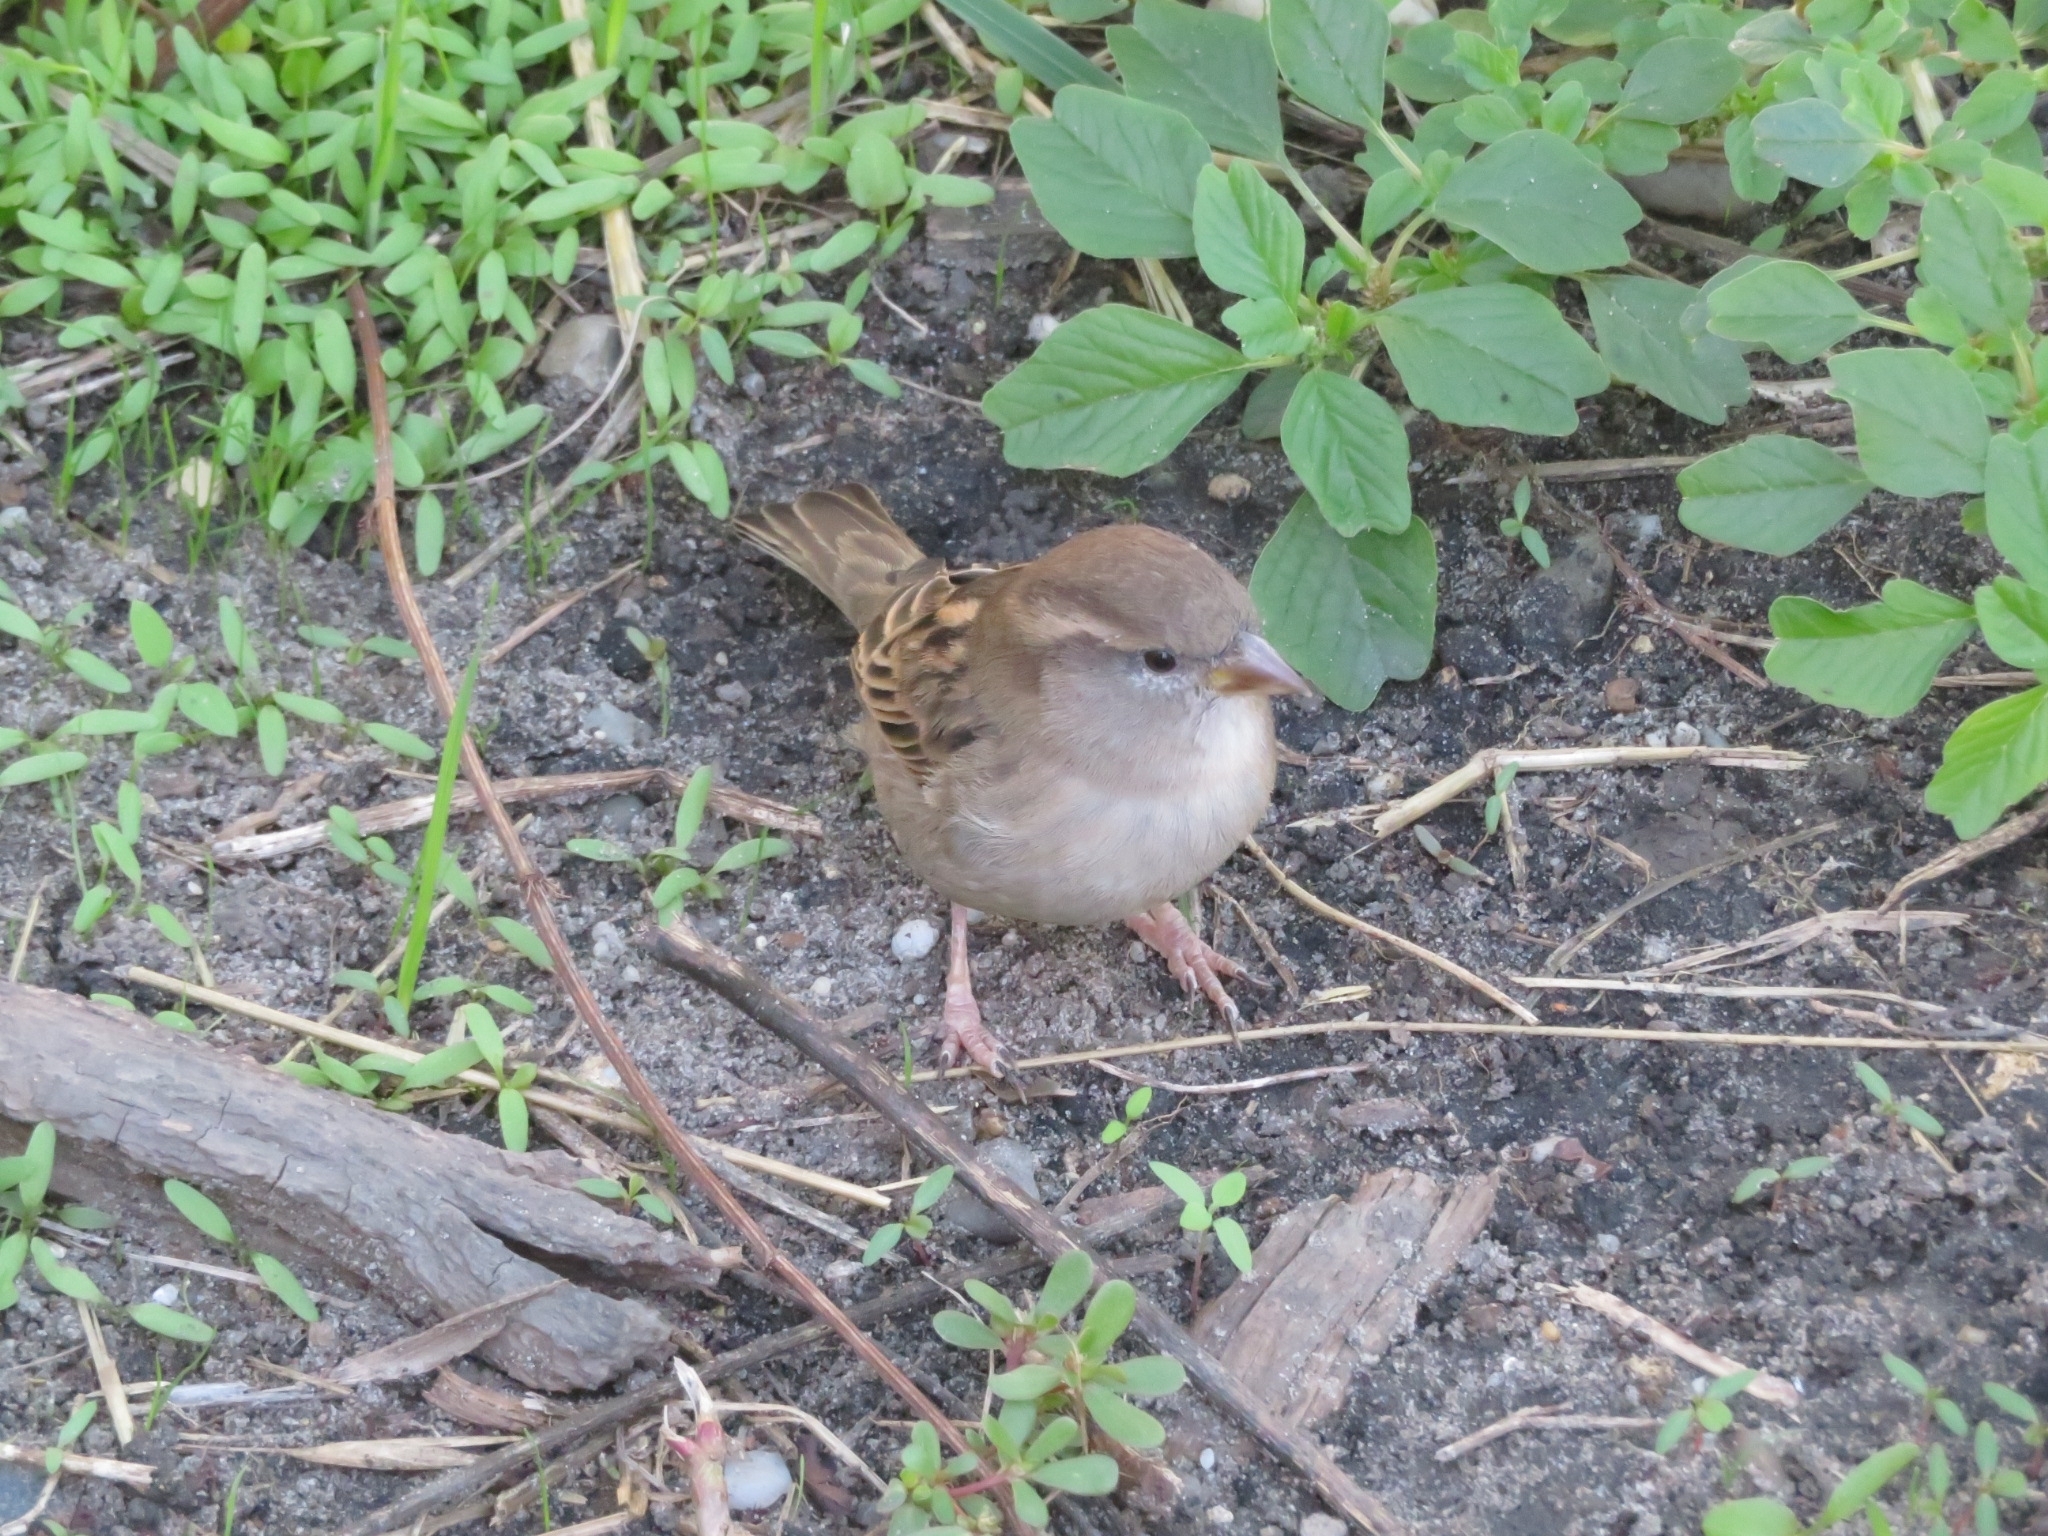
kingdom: Animalia
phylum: Chordata
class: Aves
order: Passeriformes
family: Passeridae
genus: Passer
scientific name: Passer domesticus
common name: House sparrow
